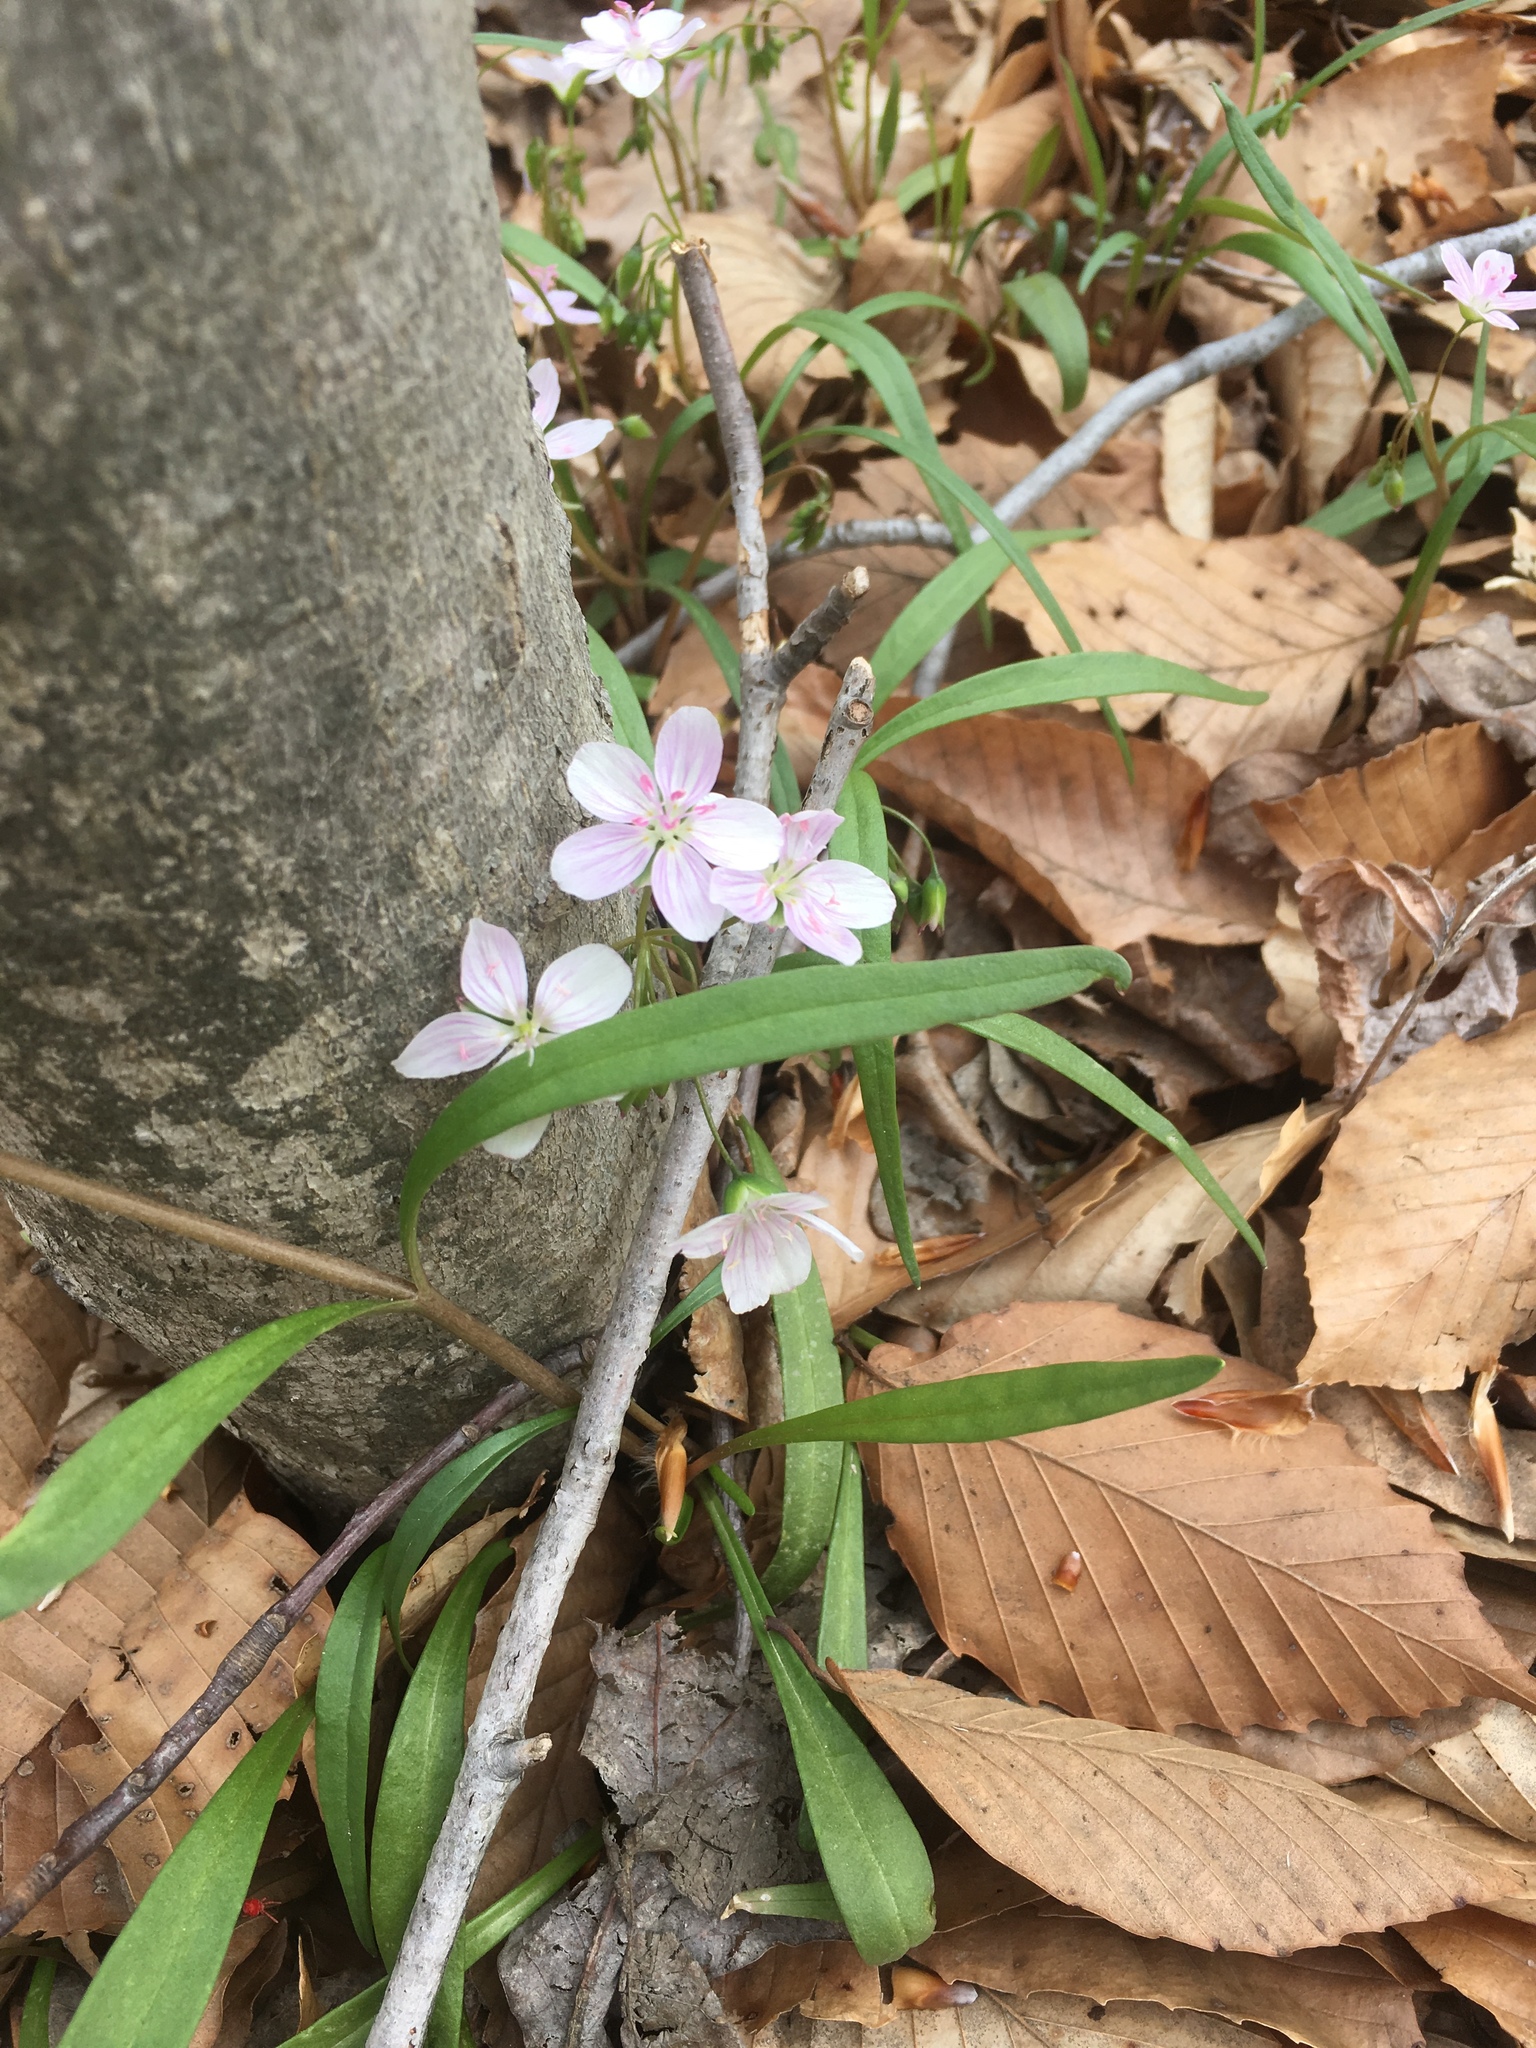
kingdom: Plantae
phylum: Tracheophyta
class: Magnoliopsida
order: Caryophyllales
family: Montiaceae
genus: Claytonia
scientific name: Claytonia virginica
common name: Virginia springbeauty
